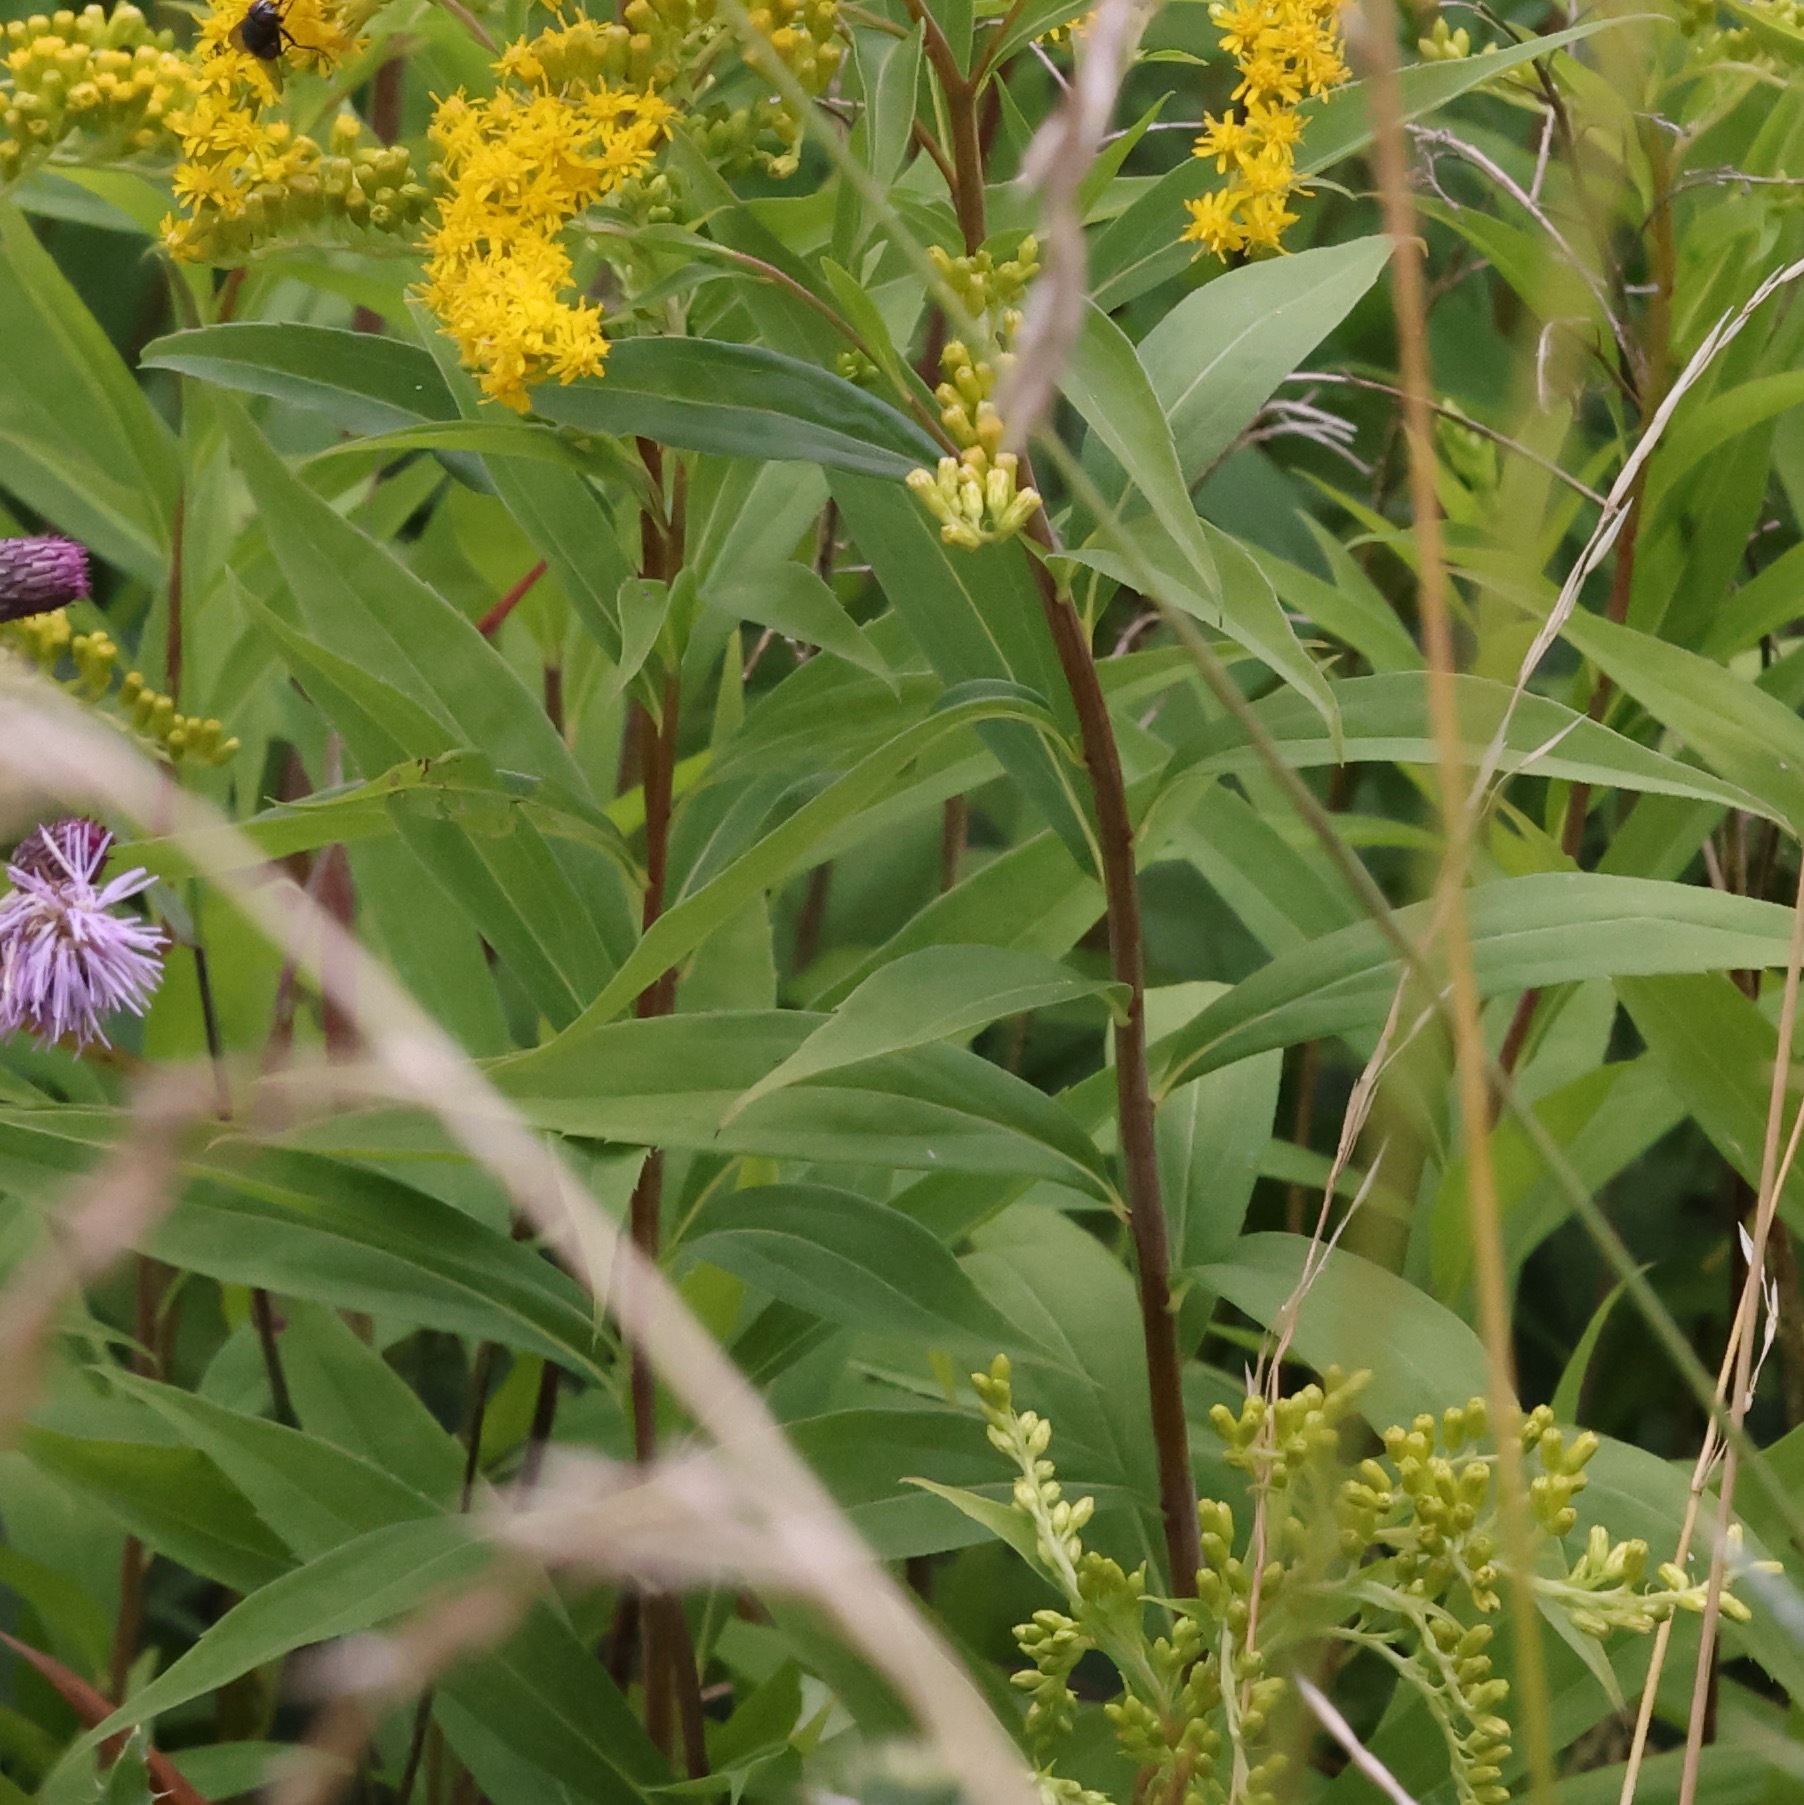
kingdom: Plantae
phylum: Tracheophyta
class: Magnoliopsida
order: Asterales
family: Asteraceae
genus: Solidago
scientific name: Solidago canadensis
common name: Canada goldenrod
